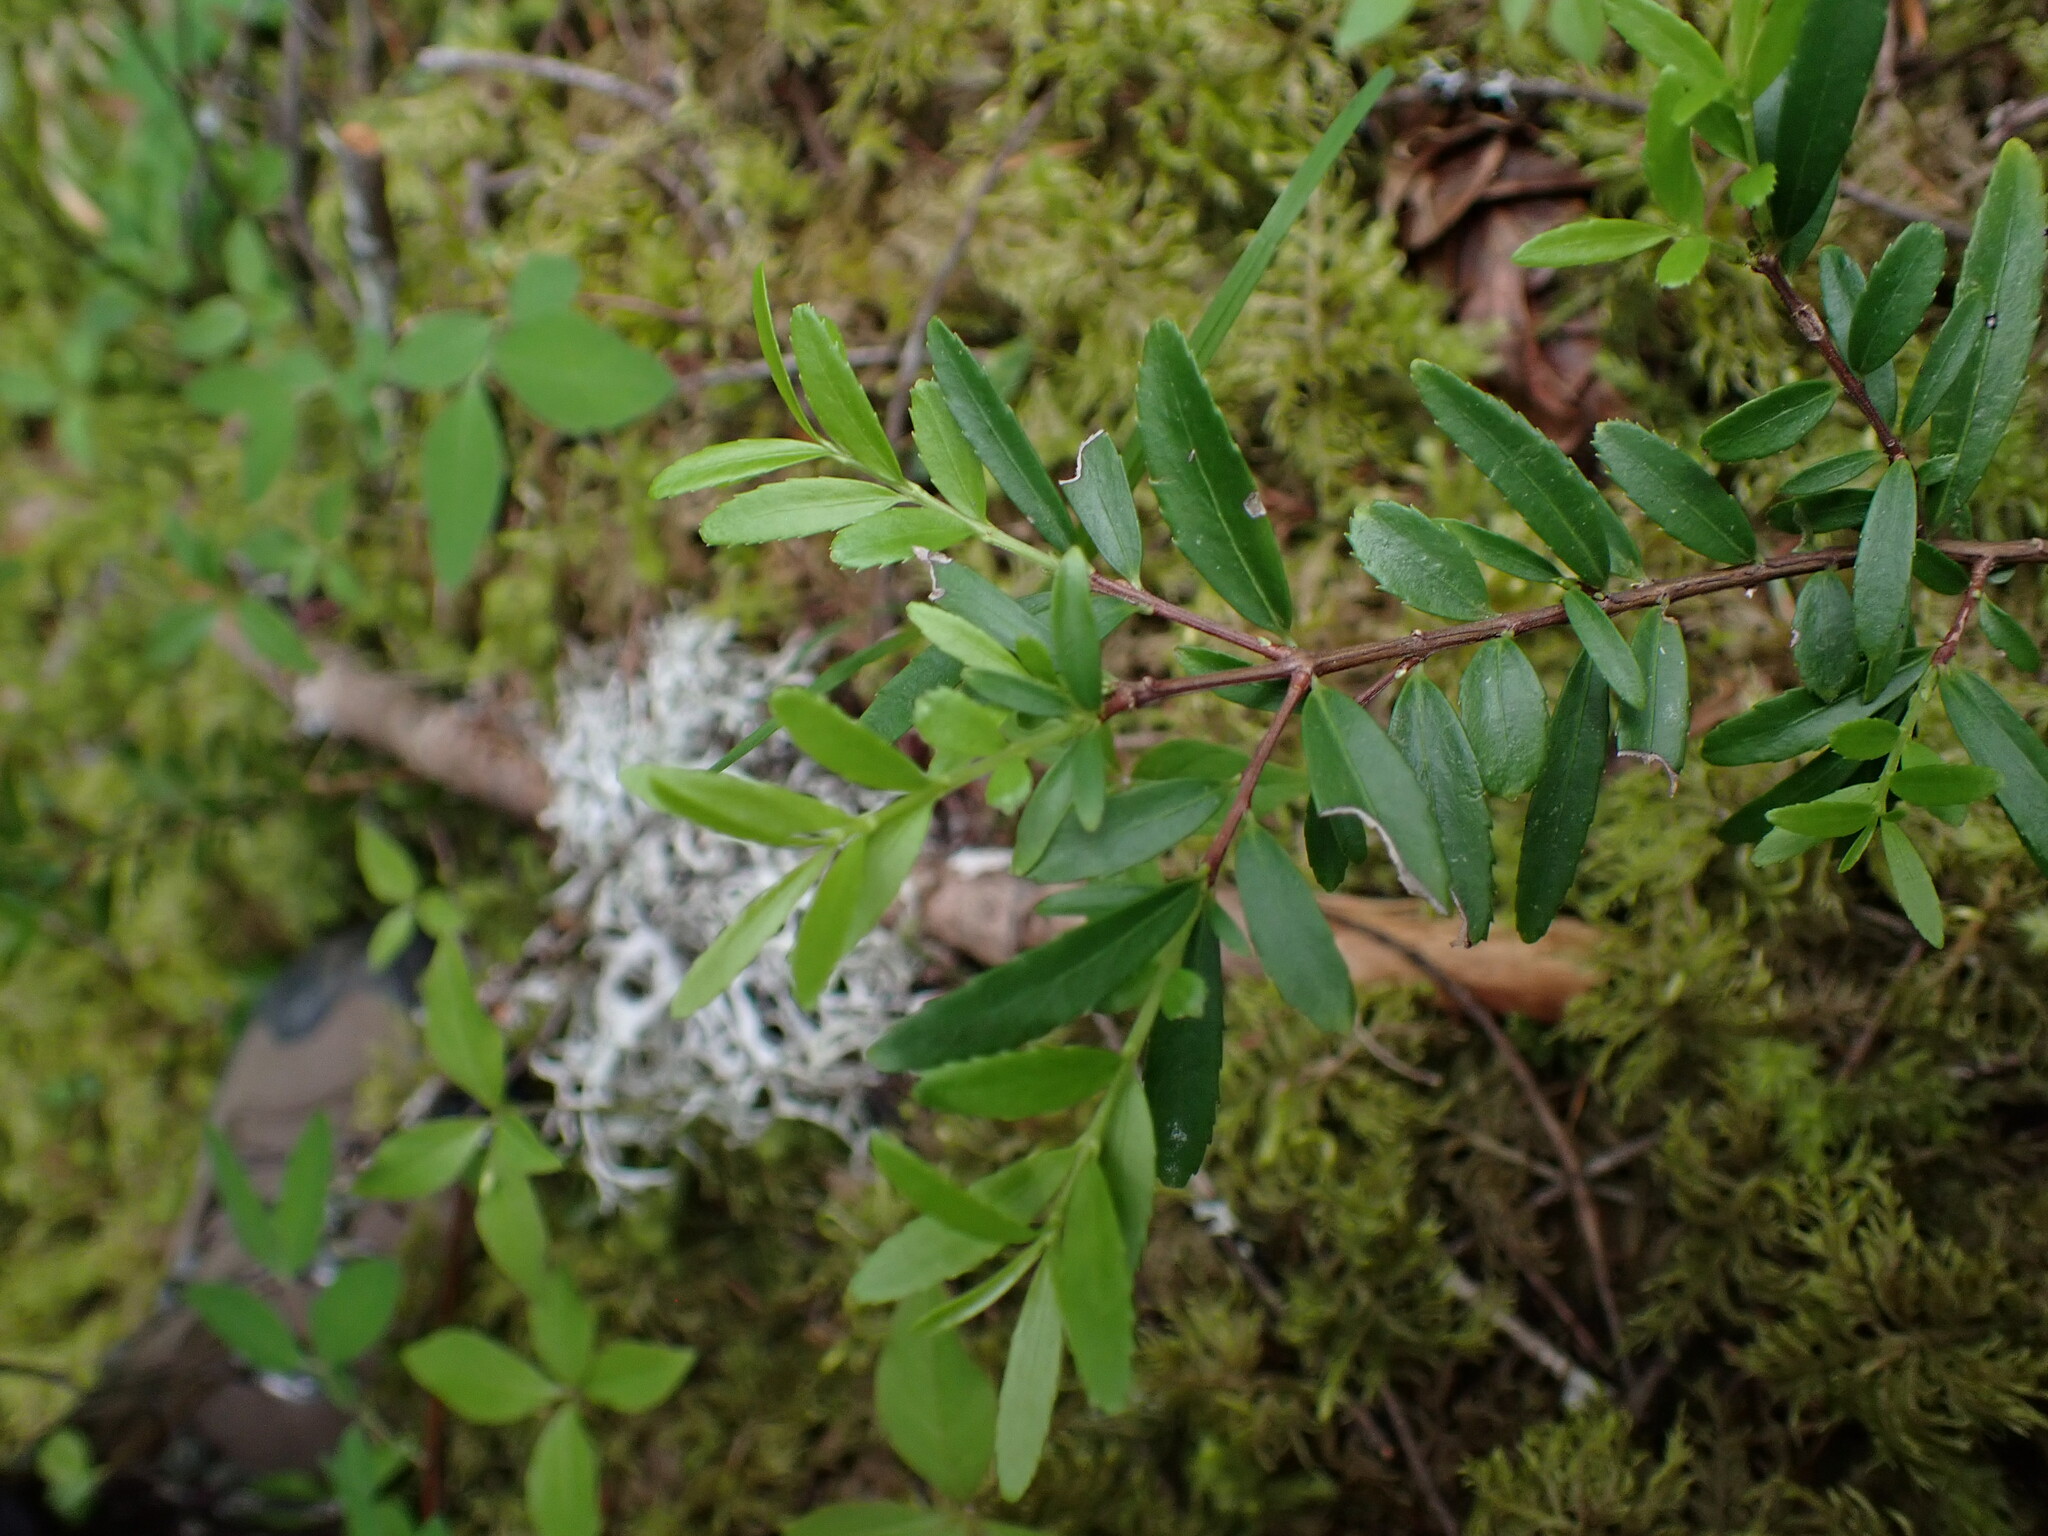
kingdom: Plantae
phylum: Tracheophyta
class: Magnoliopsida
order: Celastrales
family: Celastraceae
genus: Paxistima
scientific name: Paxistima myrsinites
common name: Mountain-lover
